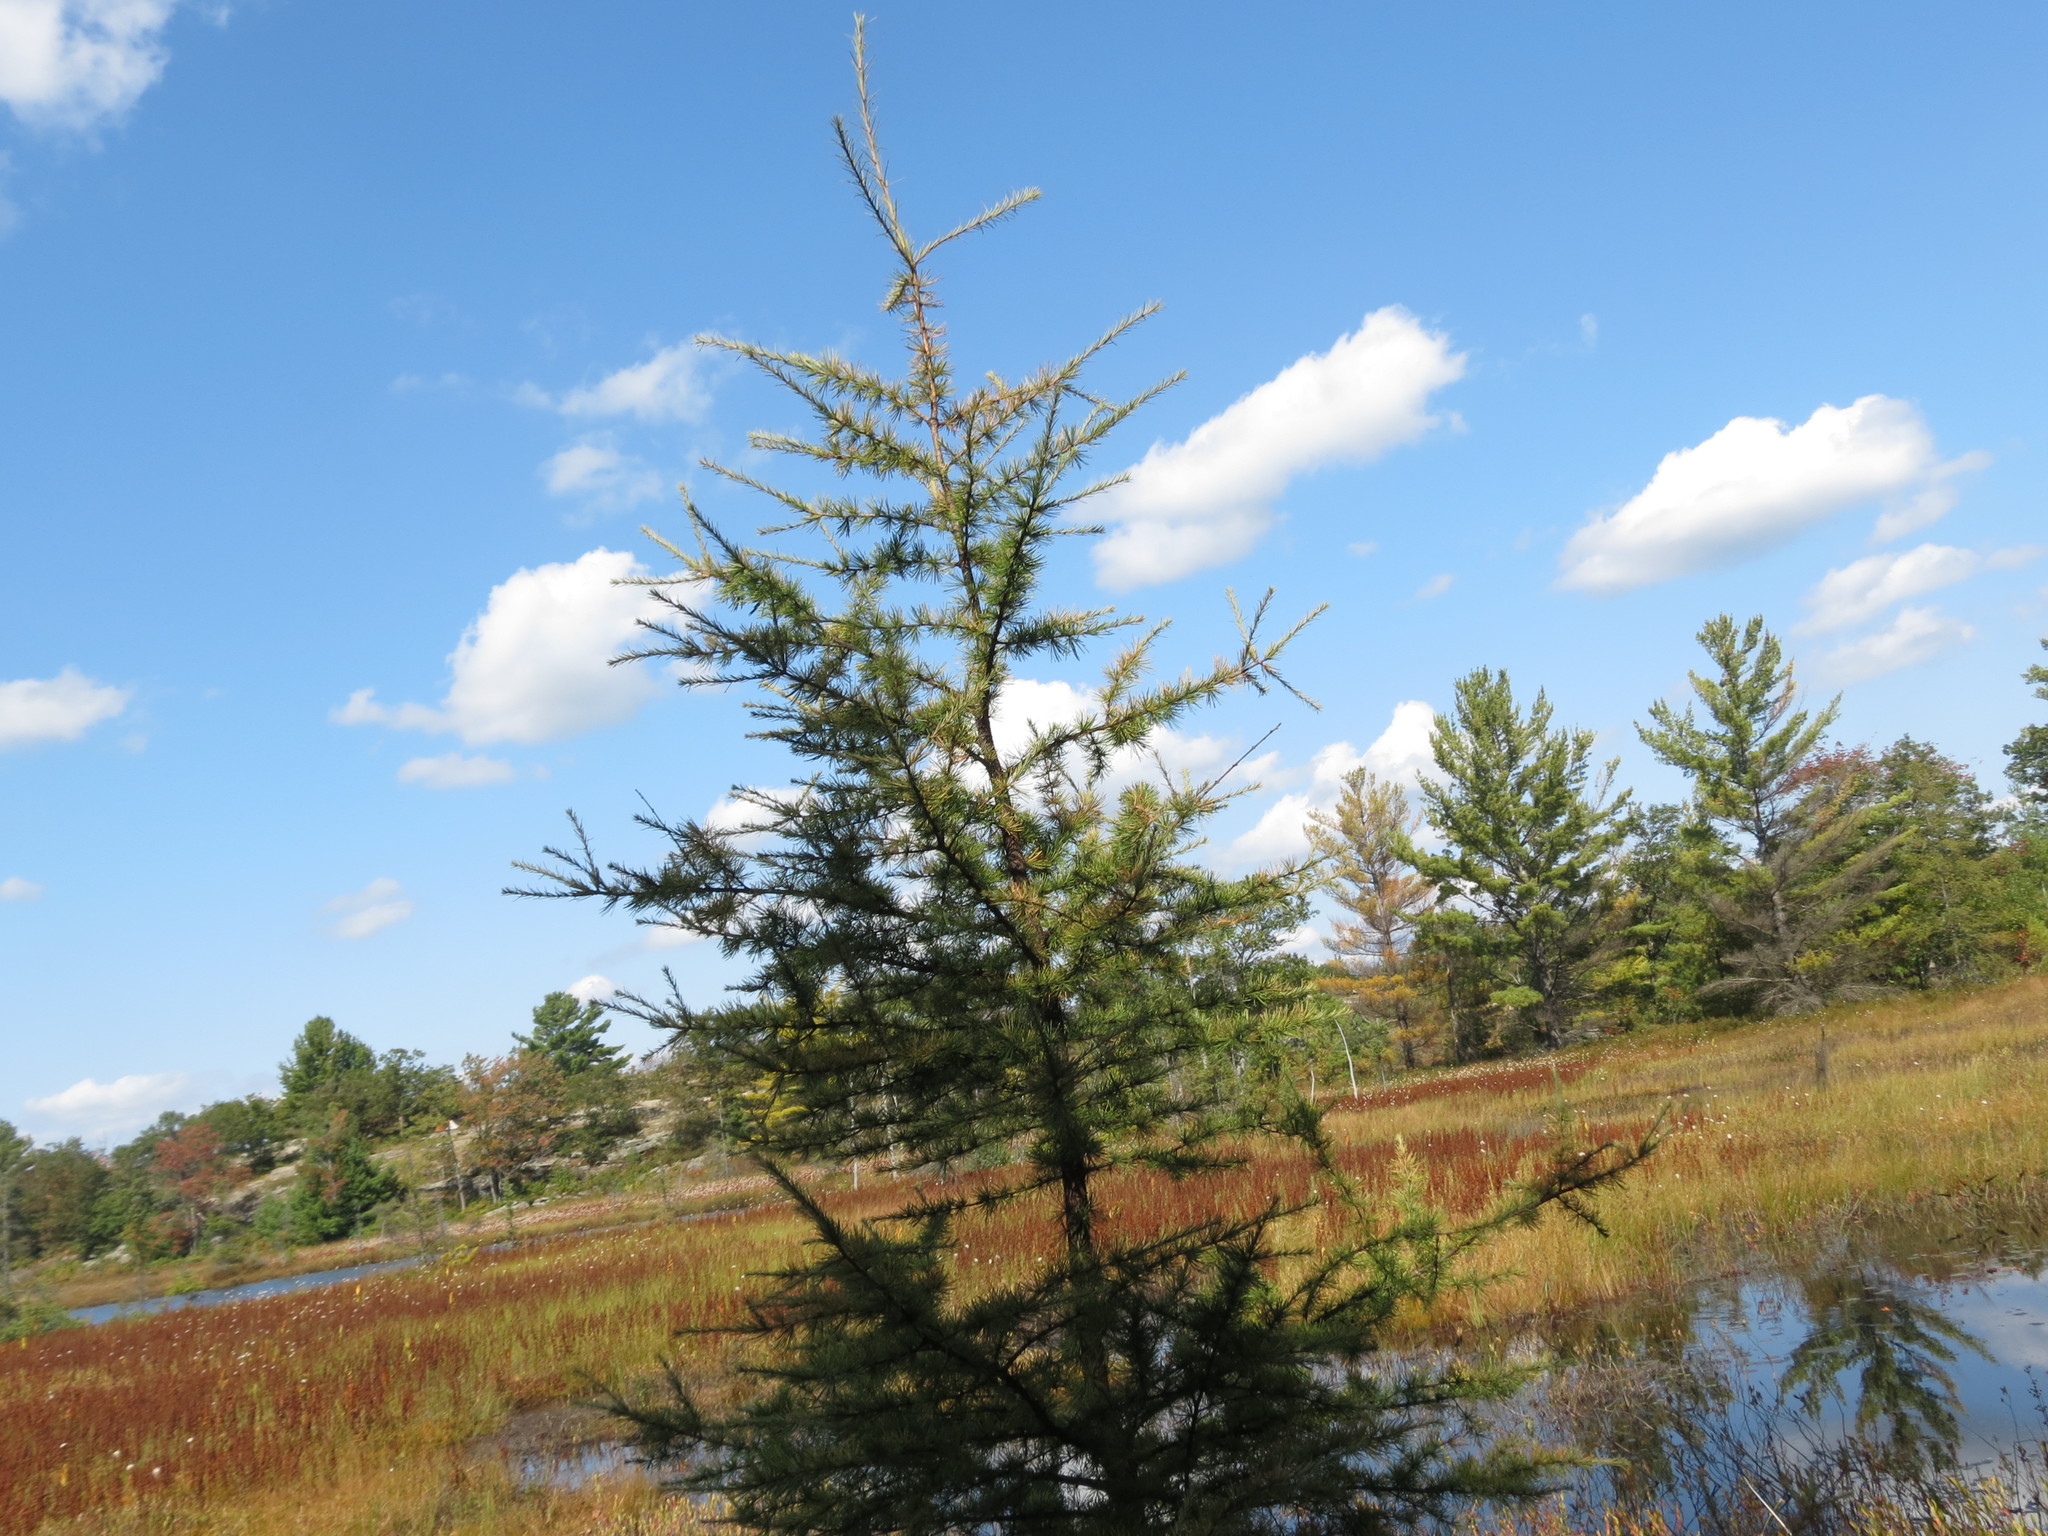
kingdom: Plantae
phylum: Tracheophyta
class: Pinopsida
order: Pinales
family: Pinaceae
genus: Larix
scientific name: Larix laricina
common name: American larch
